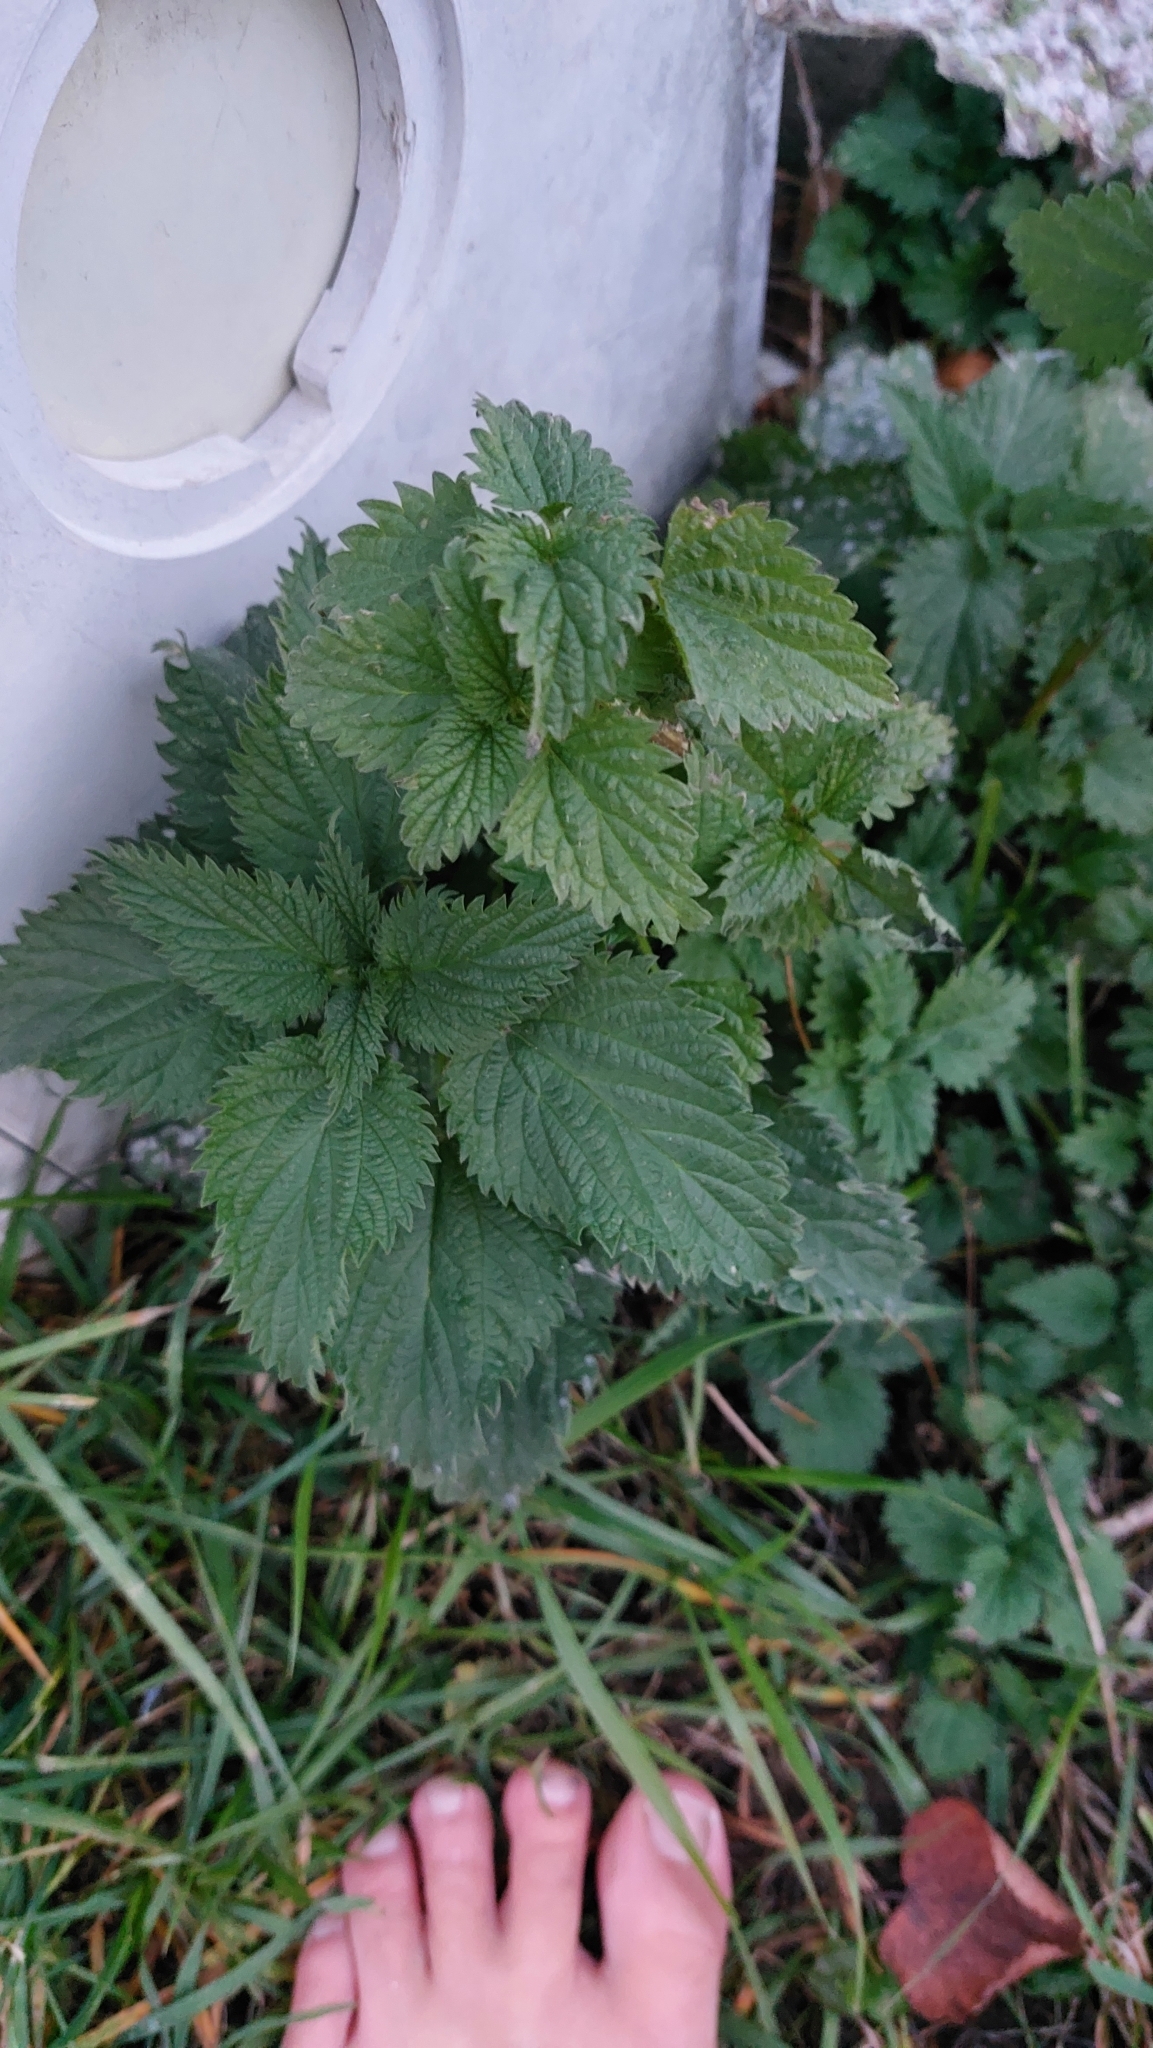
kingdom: Plantae
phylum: Tracheophyta
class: Magnoliopsida
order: Rosales
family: Urticaceae
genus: Urtica
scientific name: Urtica dioica
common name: Common nettle
